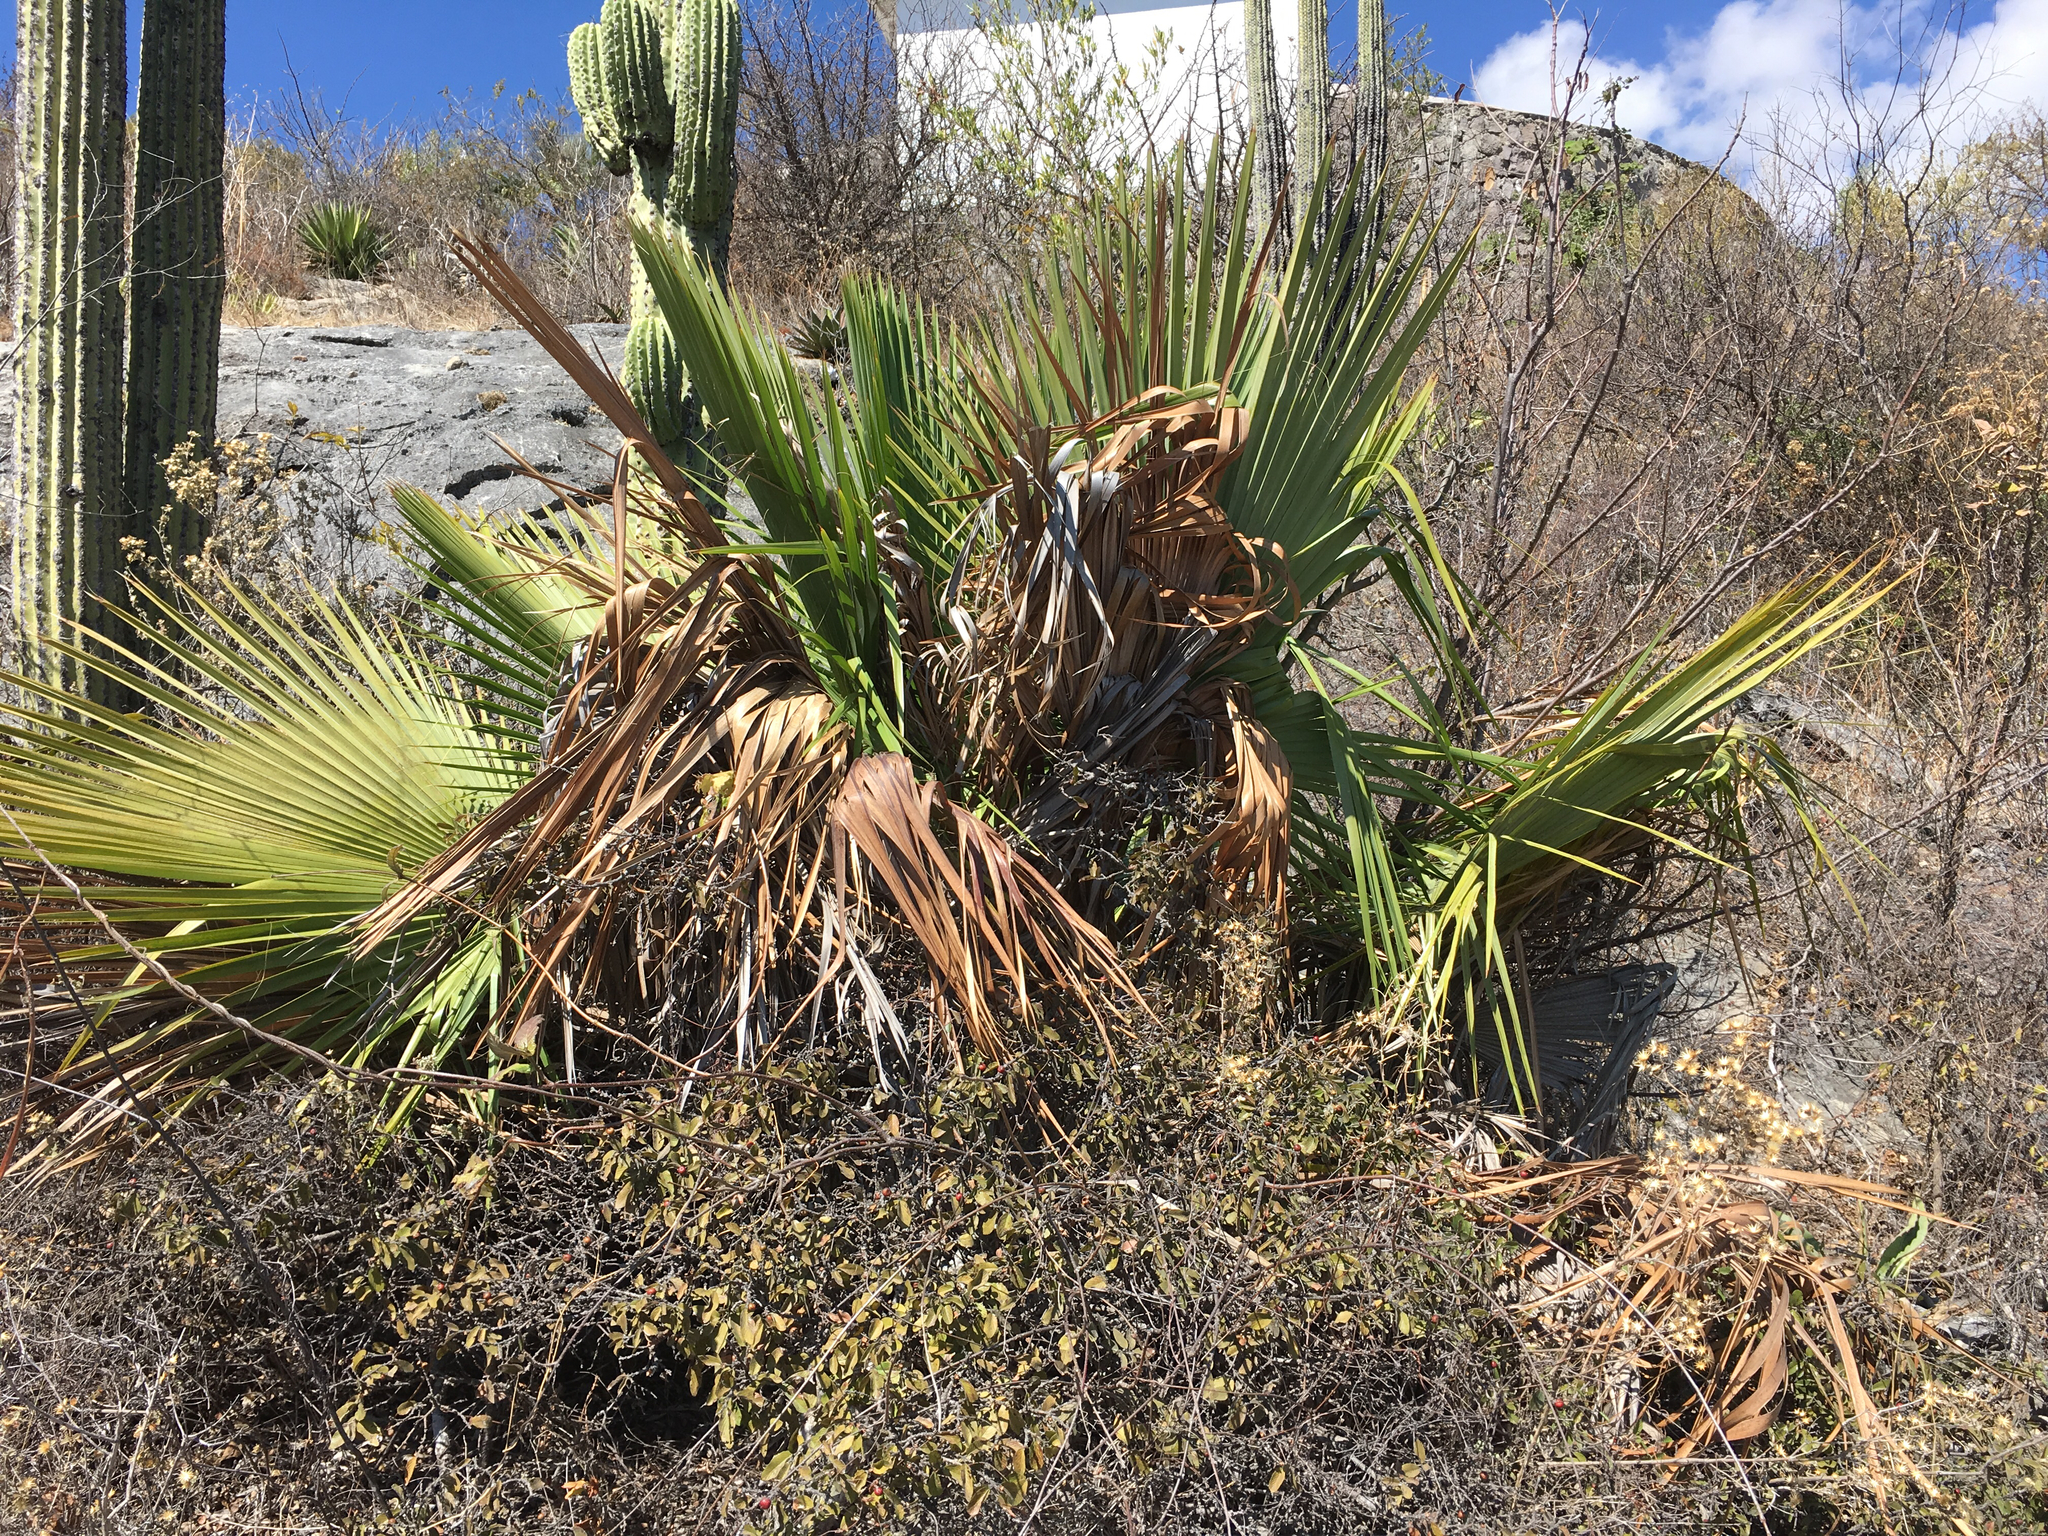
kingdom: Plantae
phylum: Tracheophyta
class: Liliopsida
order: Arecales
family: Arecaceae
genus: Brahea
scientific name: Brahea dulcis
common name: Apak palm
